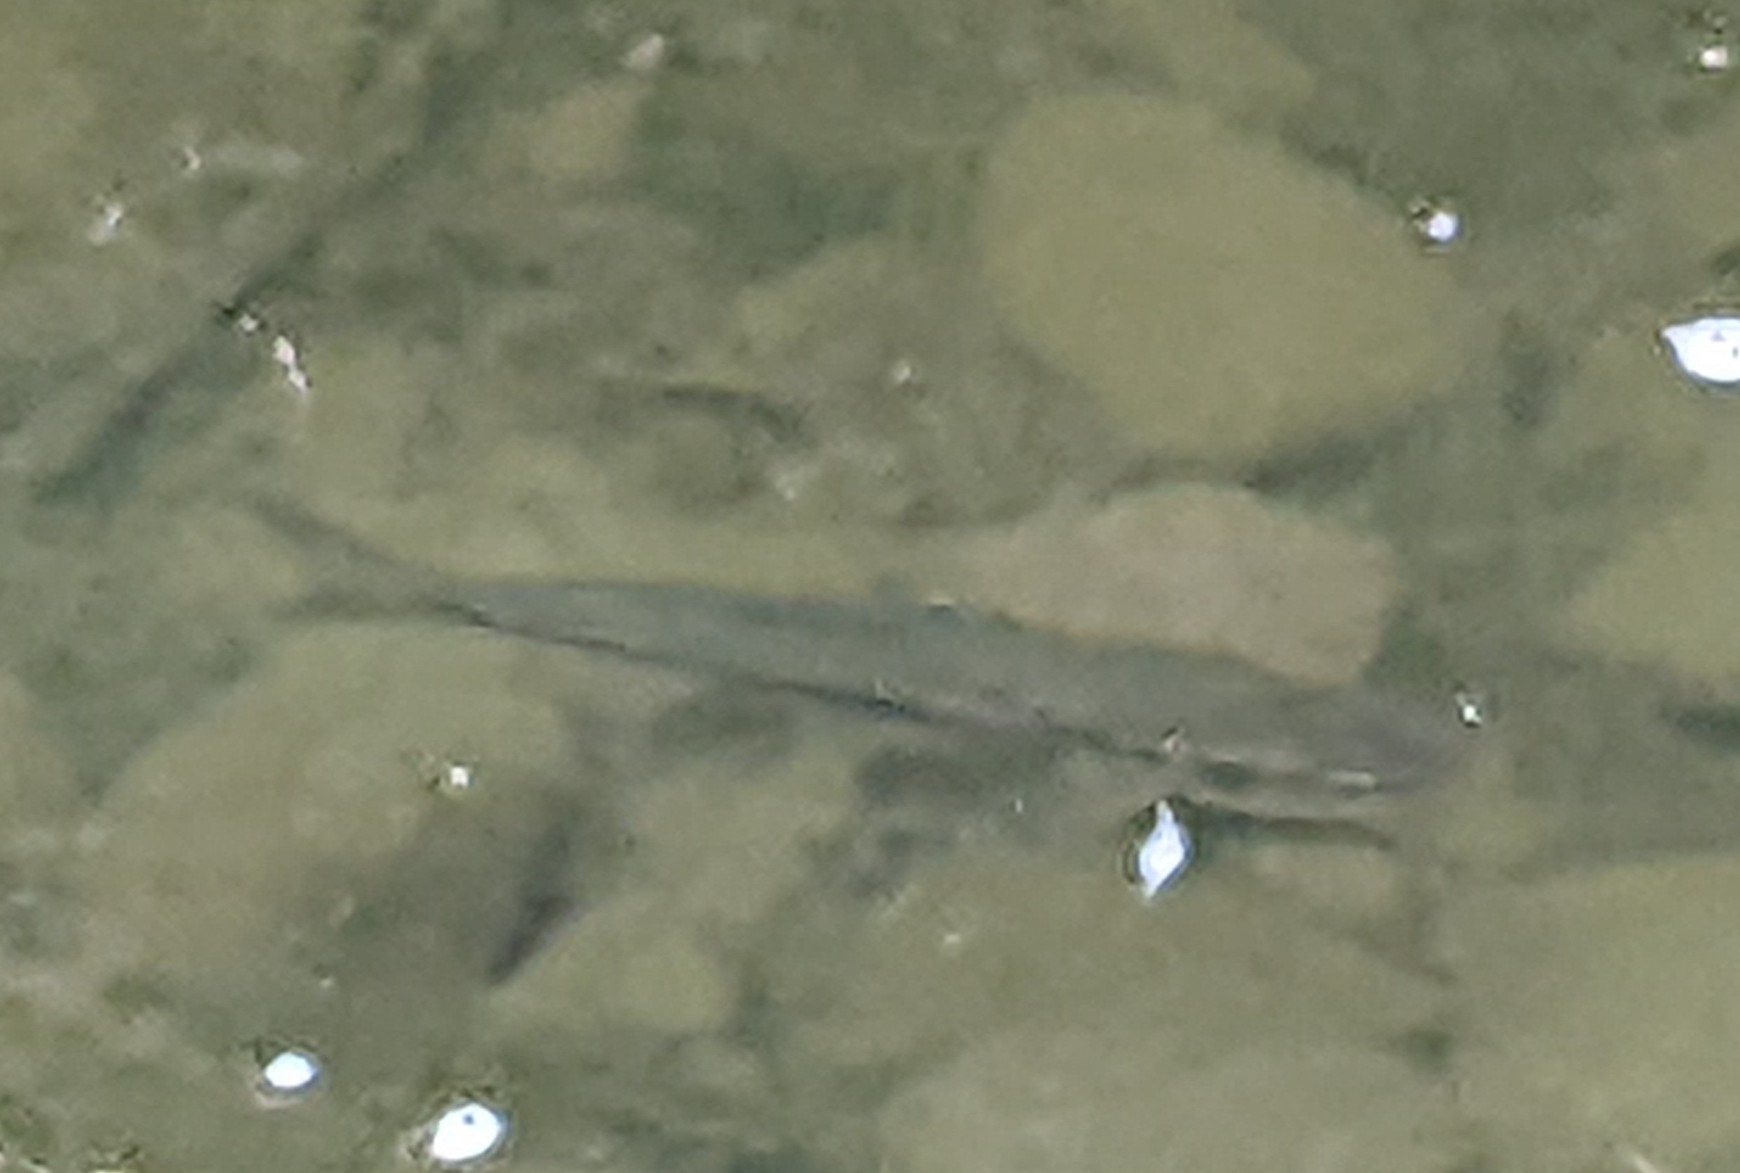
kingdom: Animalia
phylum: Chordata
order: Cypriniformes
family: Cyprinidae
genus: Semotilus
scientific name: Semotilus atromaculatus
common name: Creek chub
